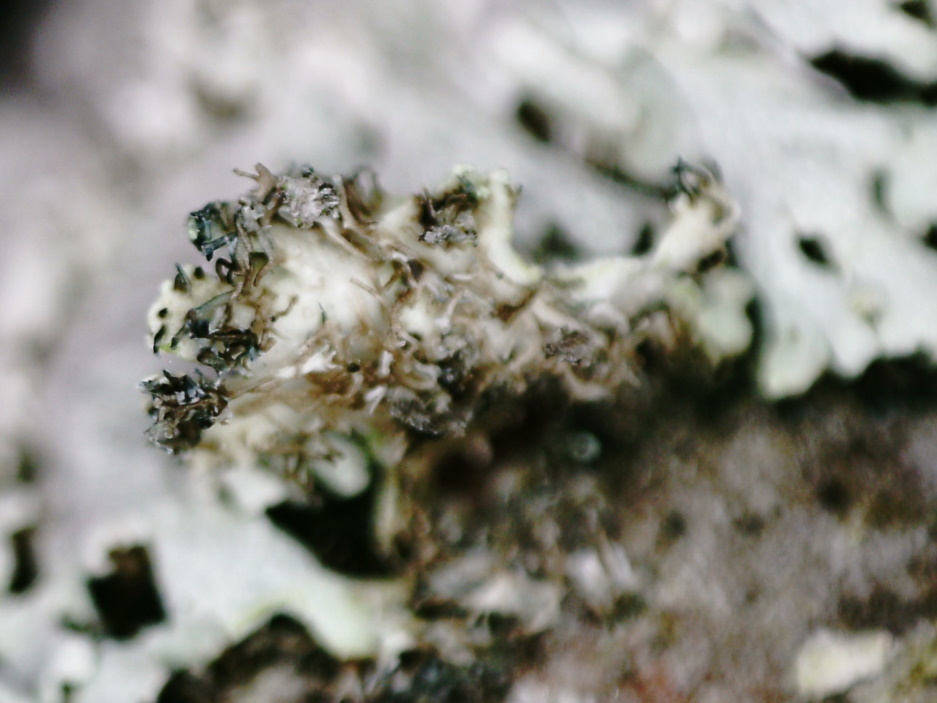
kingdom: Fungi
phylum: Ascomycota
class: Lecanoromycetes
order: Caliciales
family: Physciaceae
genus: Physcia
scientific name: Physcia aipolia
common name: Hoary rosette lichen
